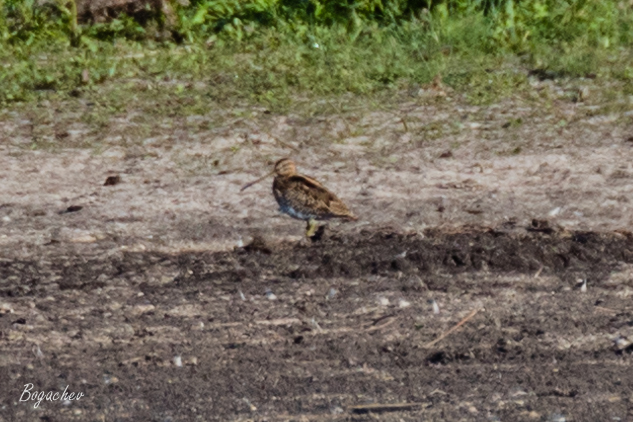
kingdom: Animalia
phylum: Chordata
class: Aves
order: Charadriiformes
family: Scolopacidae
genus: Gallinago
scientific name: Gallinago gallinago
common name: Common snipe
